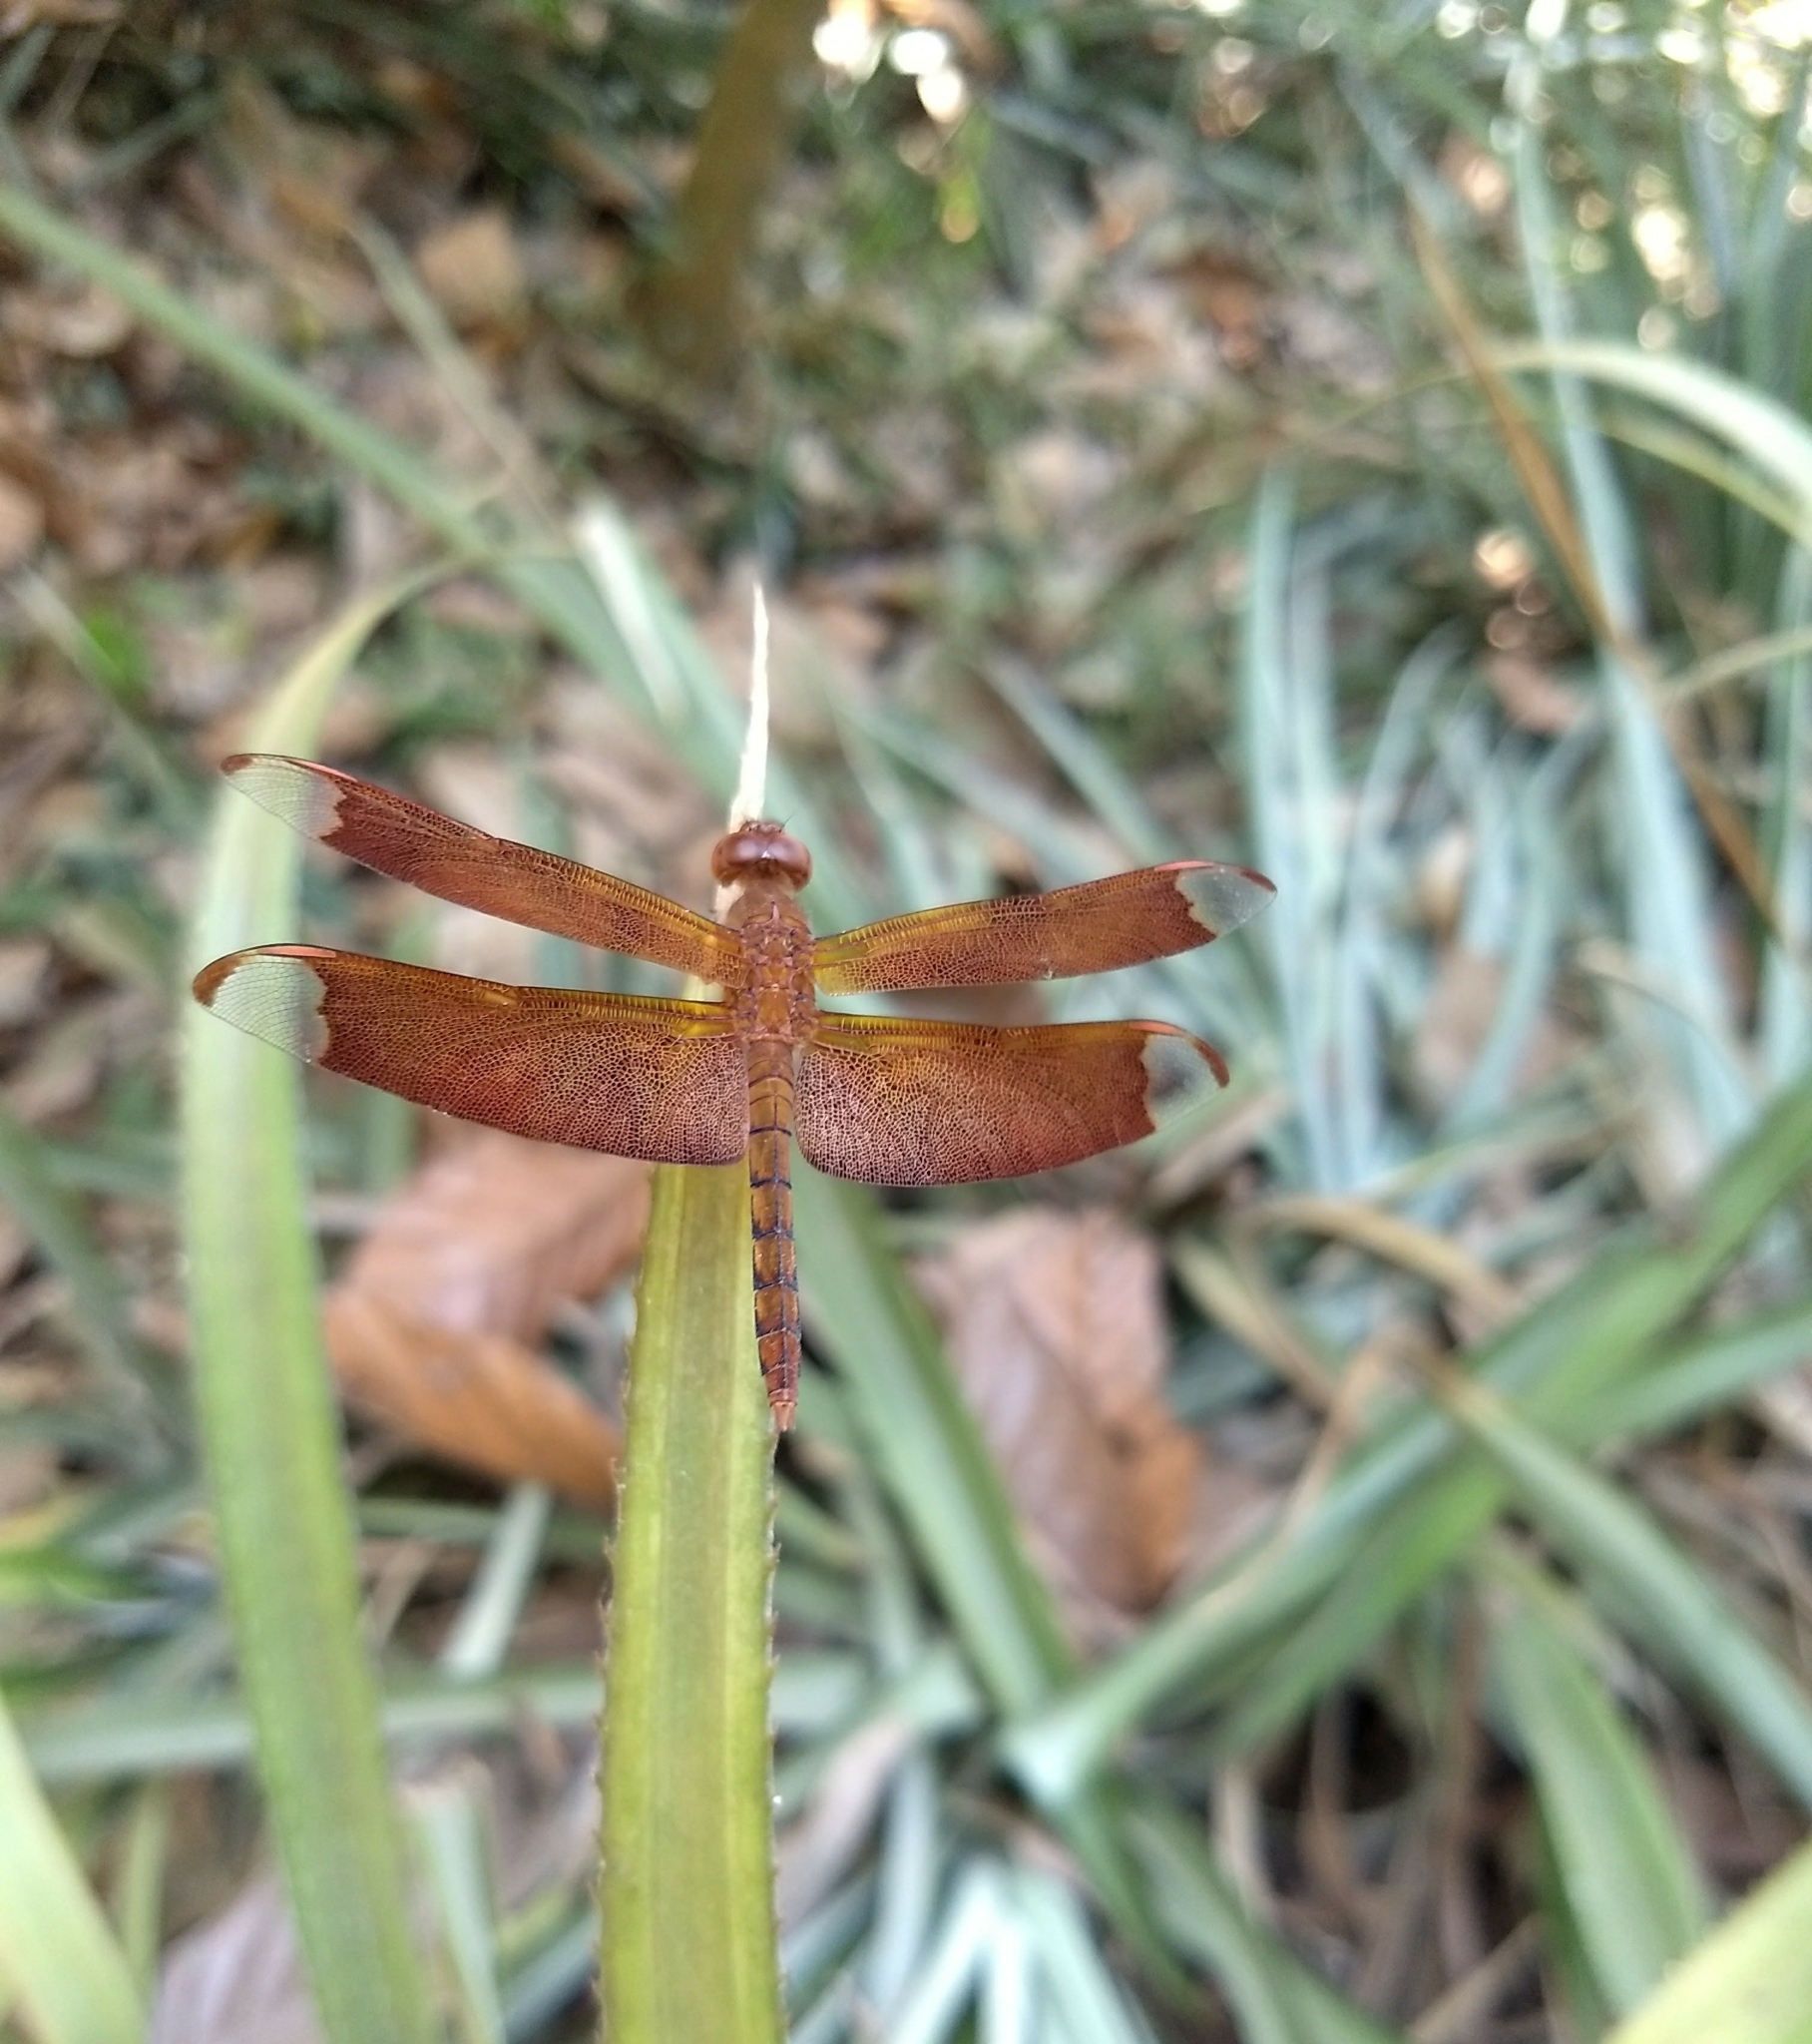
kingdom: Animalia
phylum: Arthropoda
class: Insecta
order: Odonata
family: Libellulidae
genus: Neurothemis
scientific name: Neurothemis fulvia
